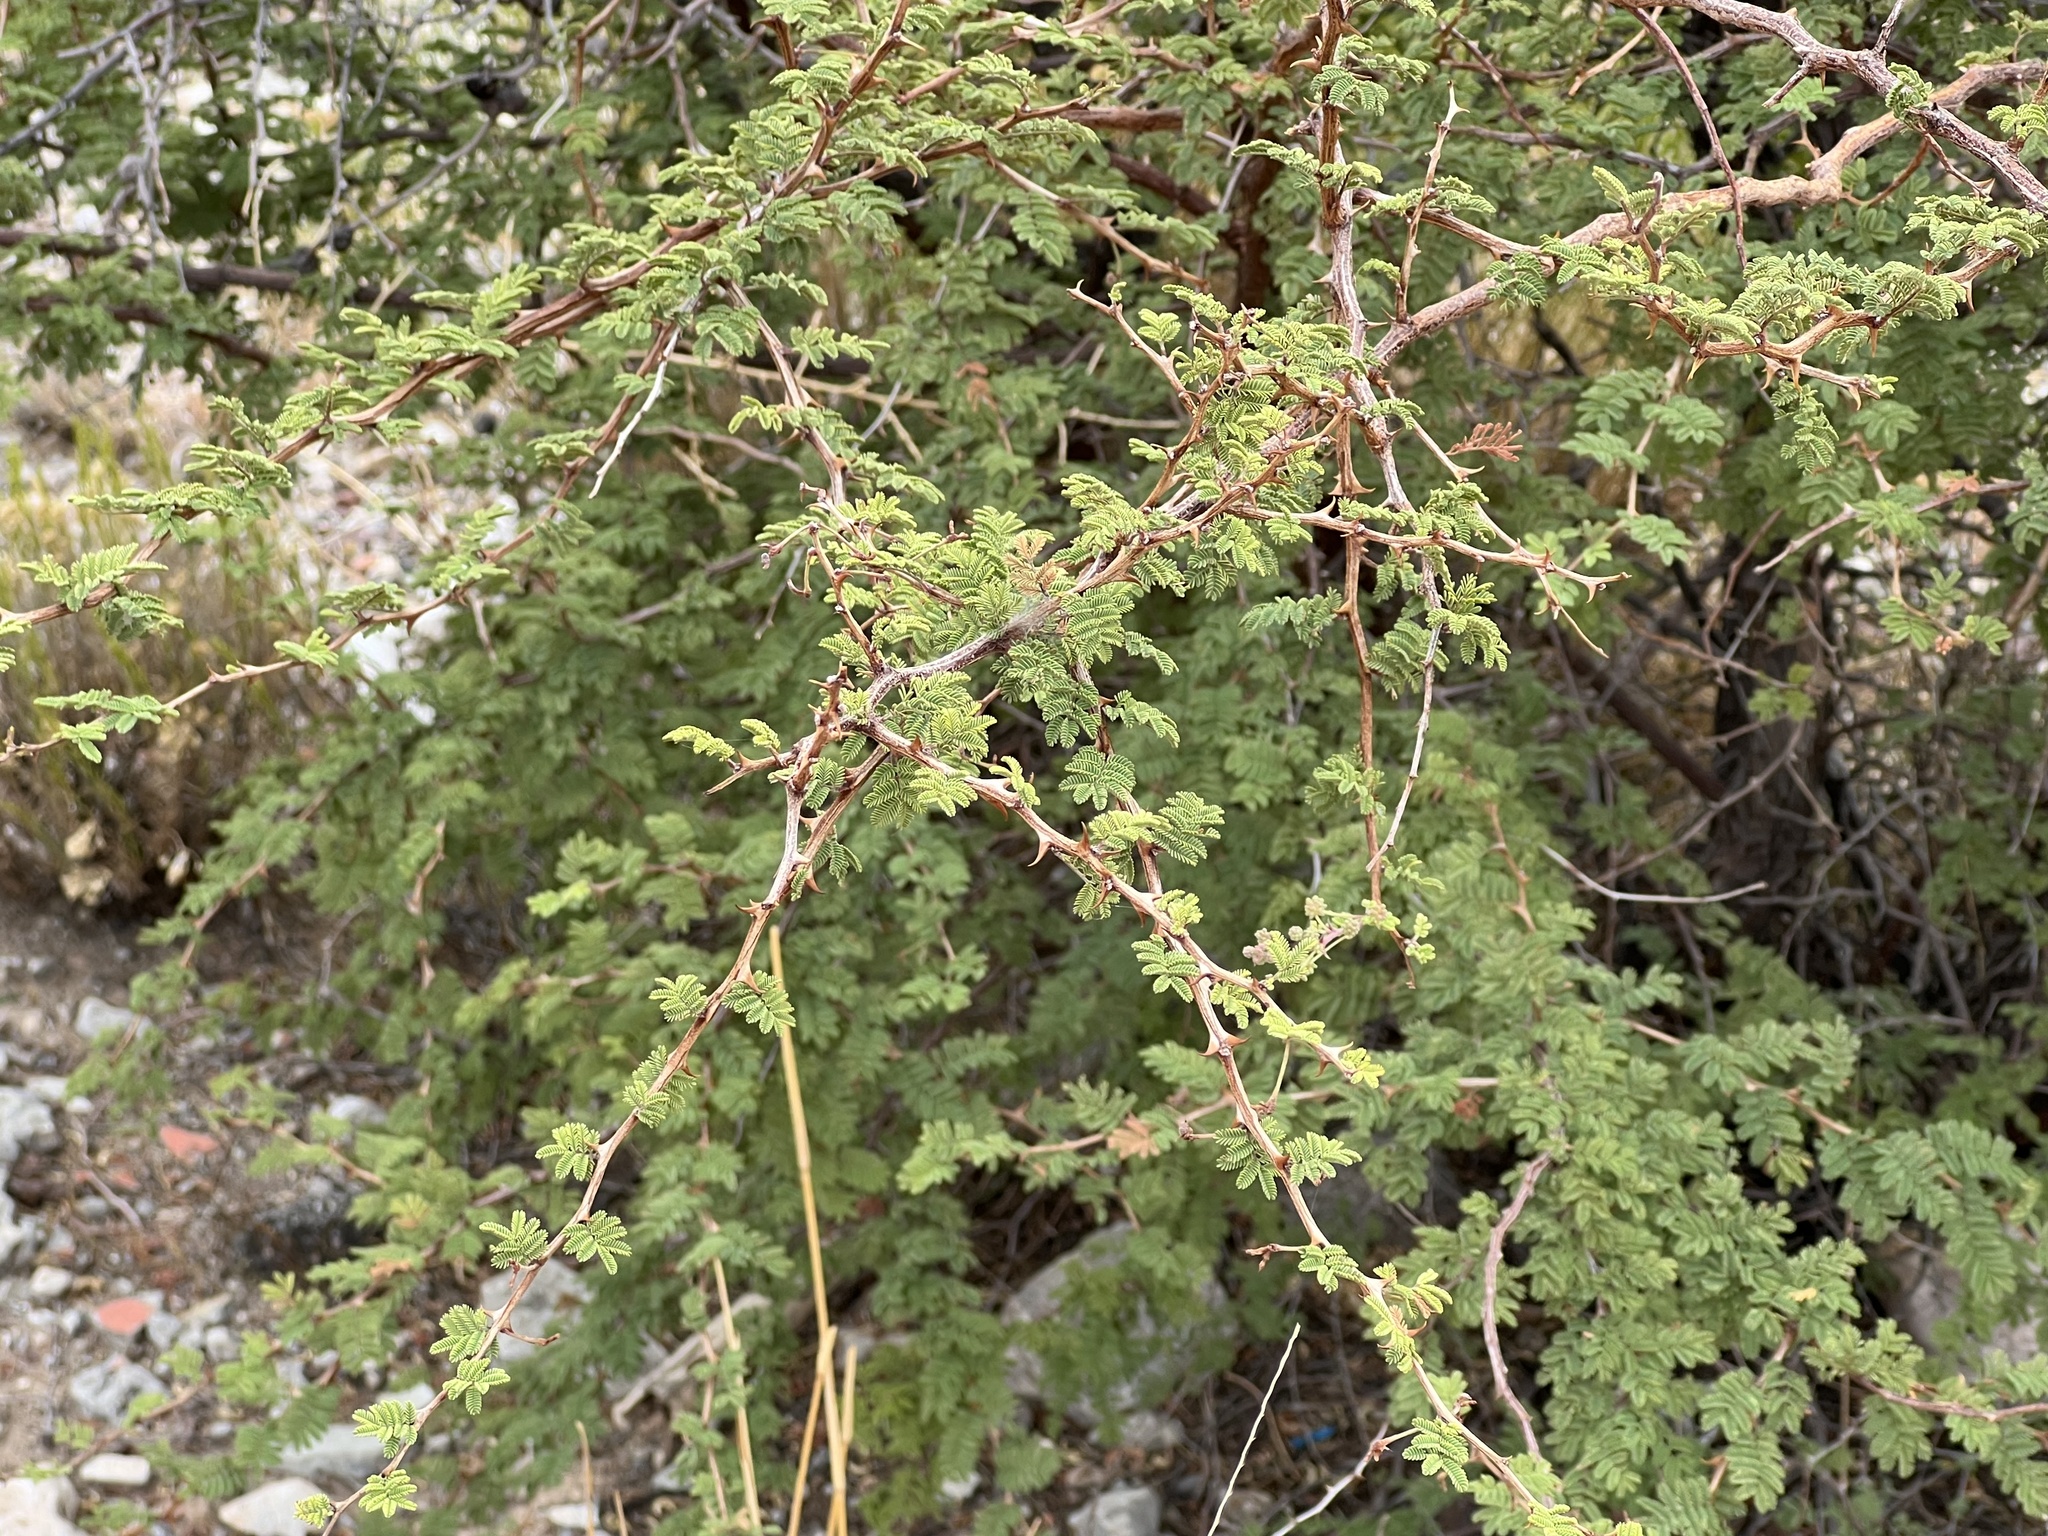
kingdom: Plantae
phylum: Tracheophyta
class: Magnoliopsida
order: Fabales
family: Fabaceae
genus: Mimosa
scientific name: Mimosa aculeaticarpa
